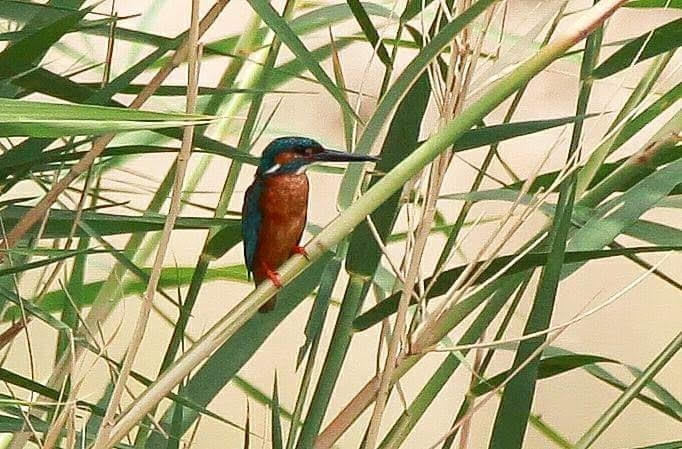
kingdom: Animalia
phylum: Chordata
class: Aves
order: Coraciiformes
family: Alcedinidae
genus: Alcedo
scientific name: Alcedo atthis
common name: Common kingfisher
